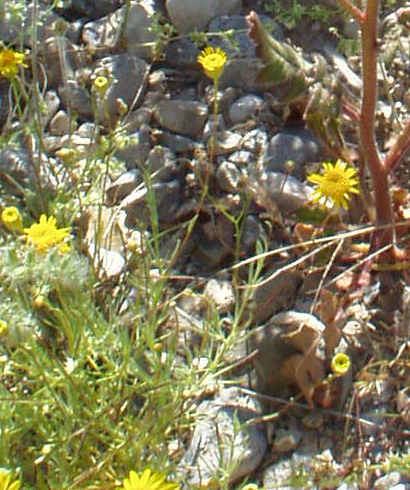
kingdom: Plantae
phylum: Tracheophyta
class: Magnoliopsida
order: Asterales
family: Asteraceae
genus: Thymophylla
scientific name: Thymophylla pentachaeta
